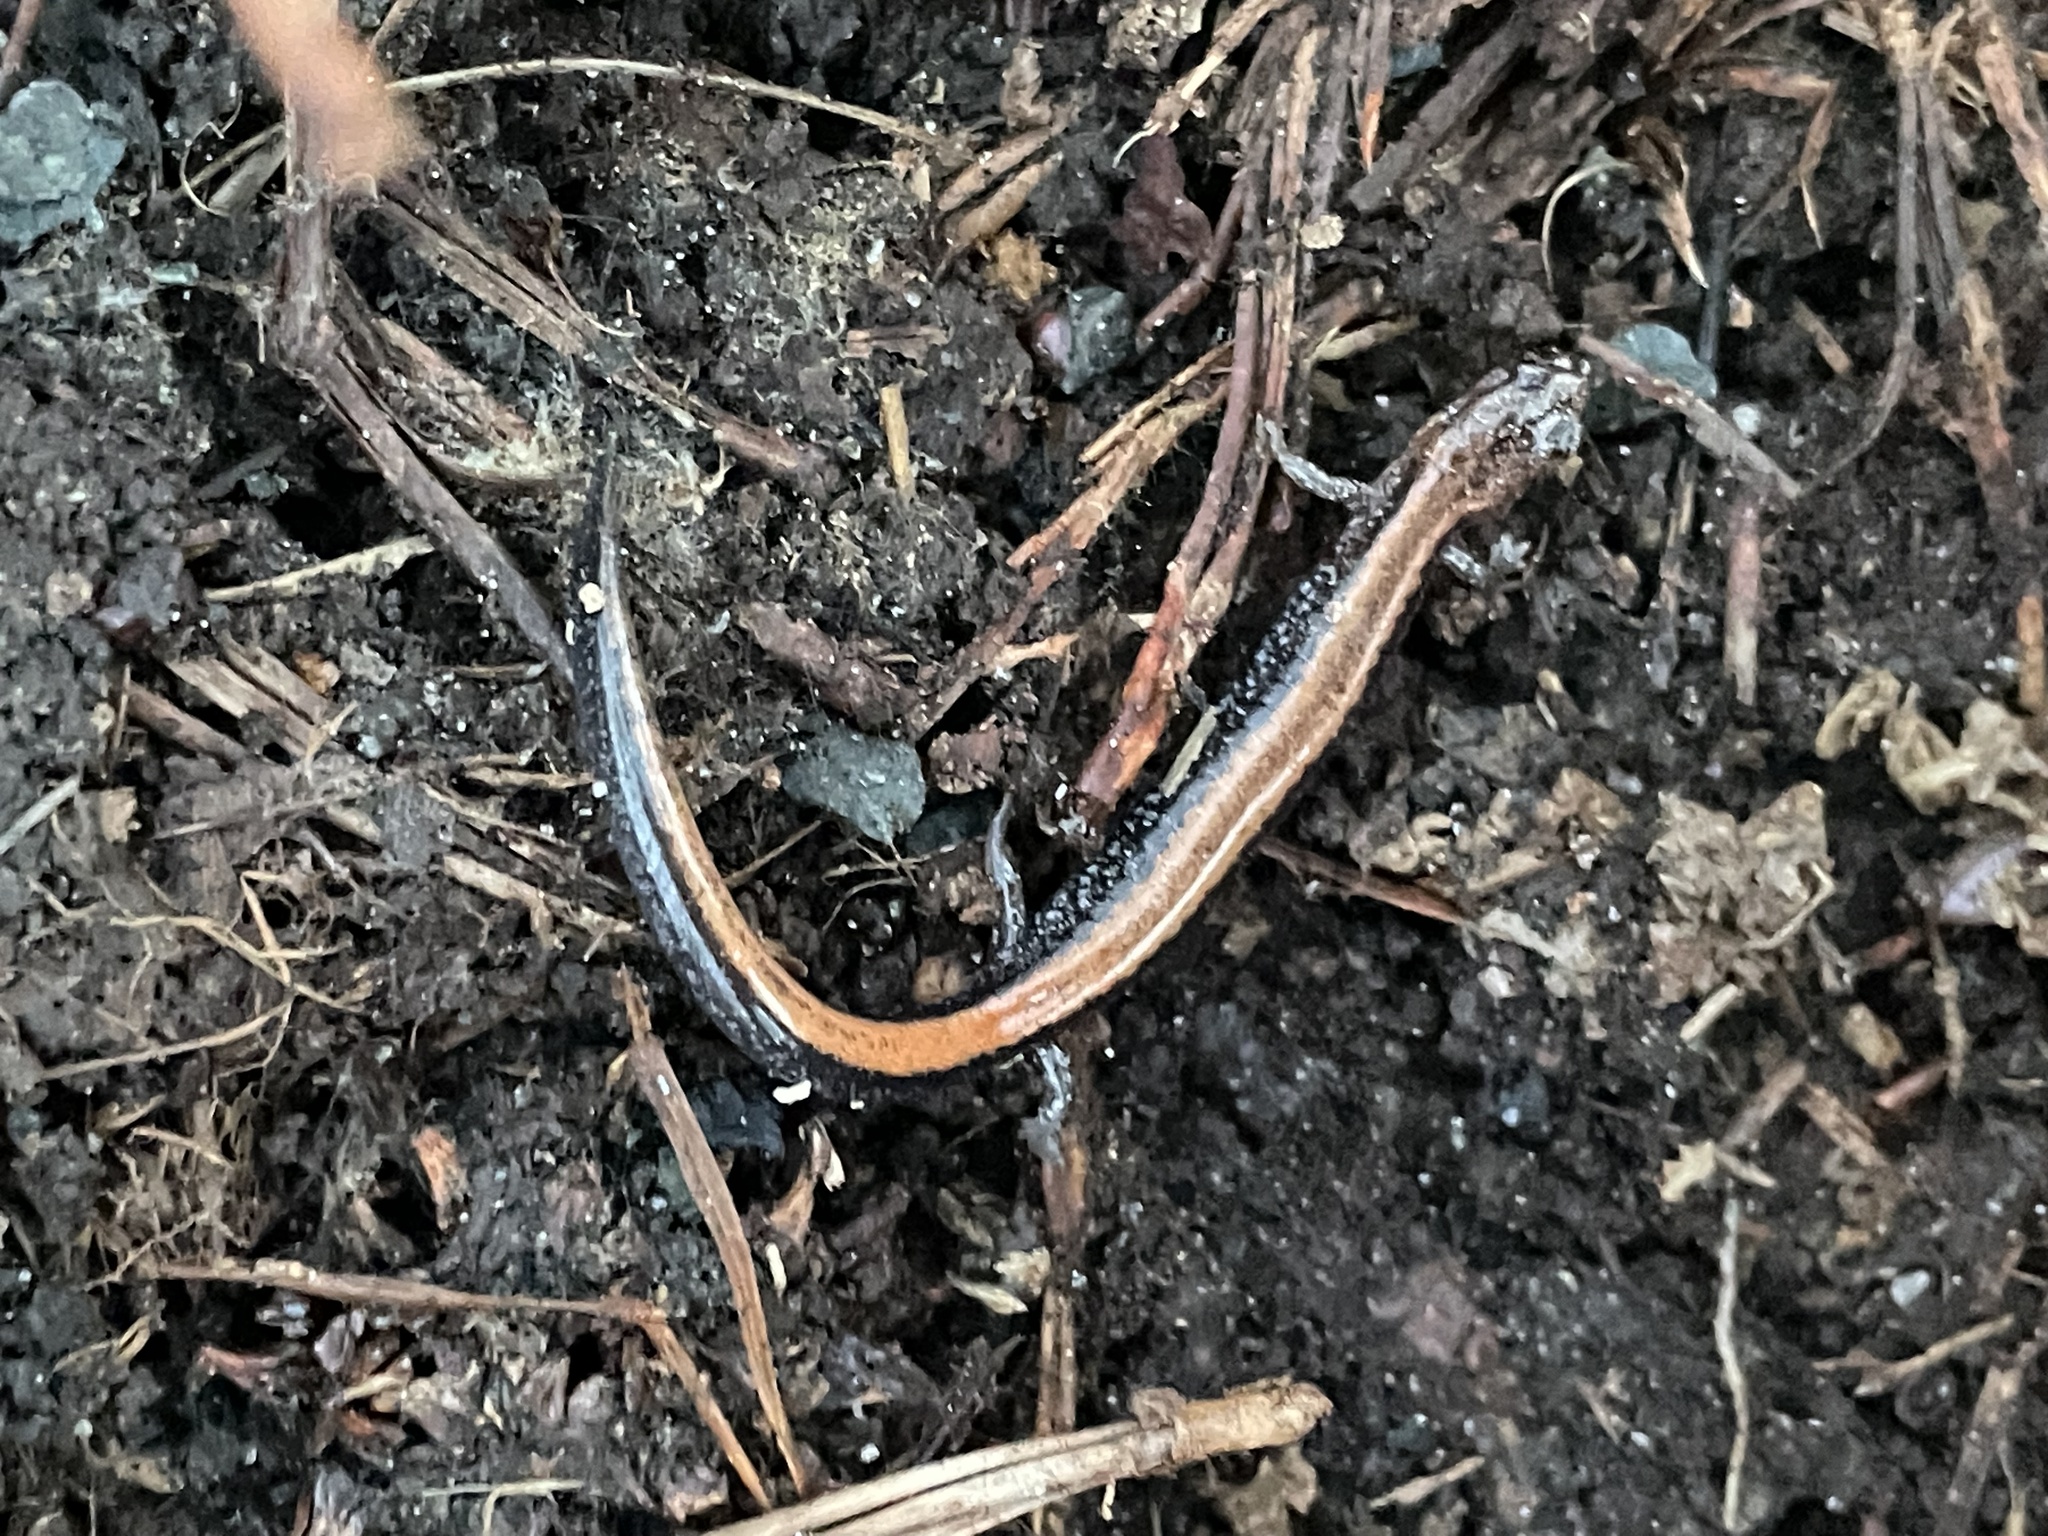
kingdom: Animalia
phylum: Chordata
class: Amphibia
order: Caudata
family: Plethodontidae
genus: Plethodon
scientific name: Plethodon cinereus
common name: Redback salamander
